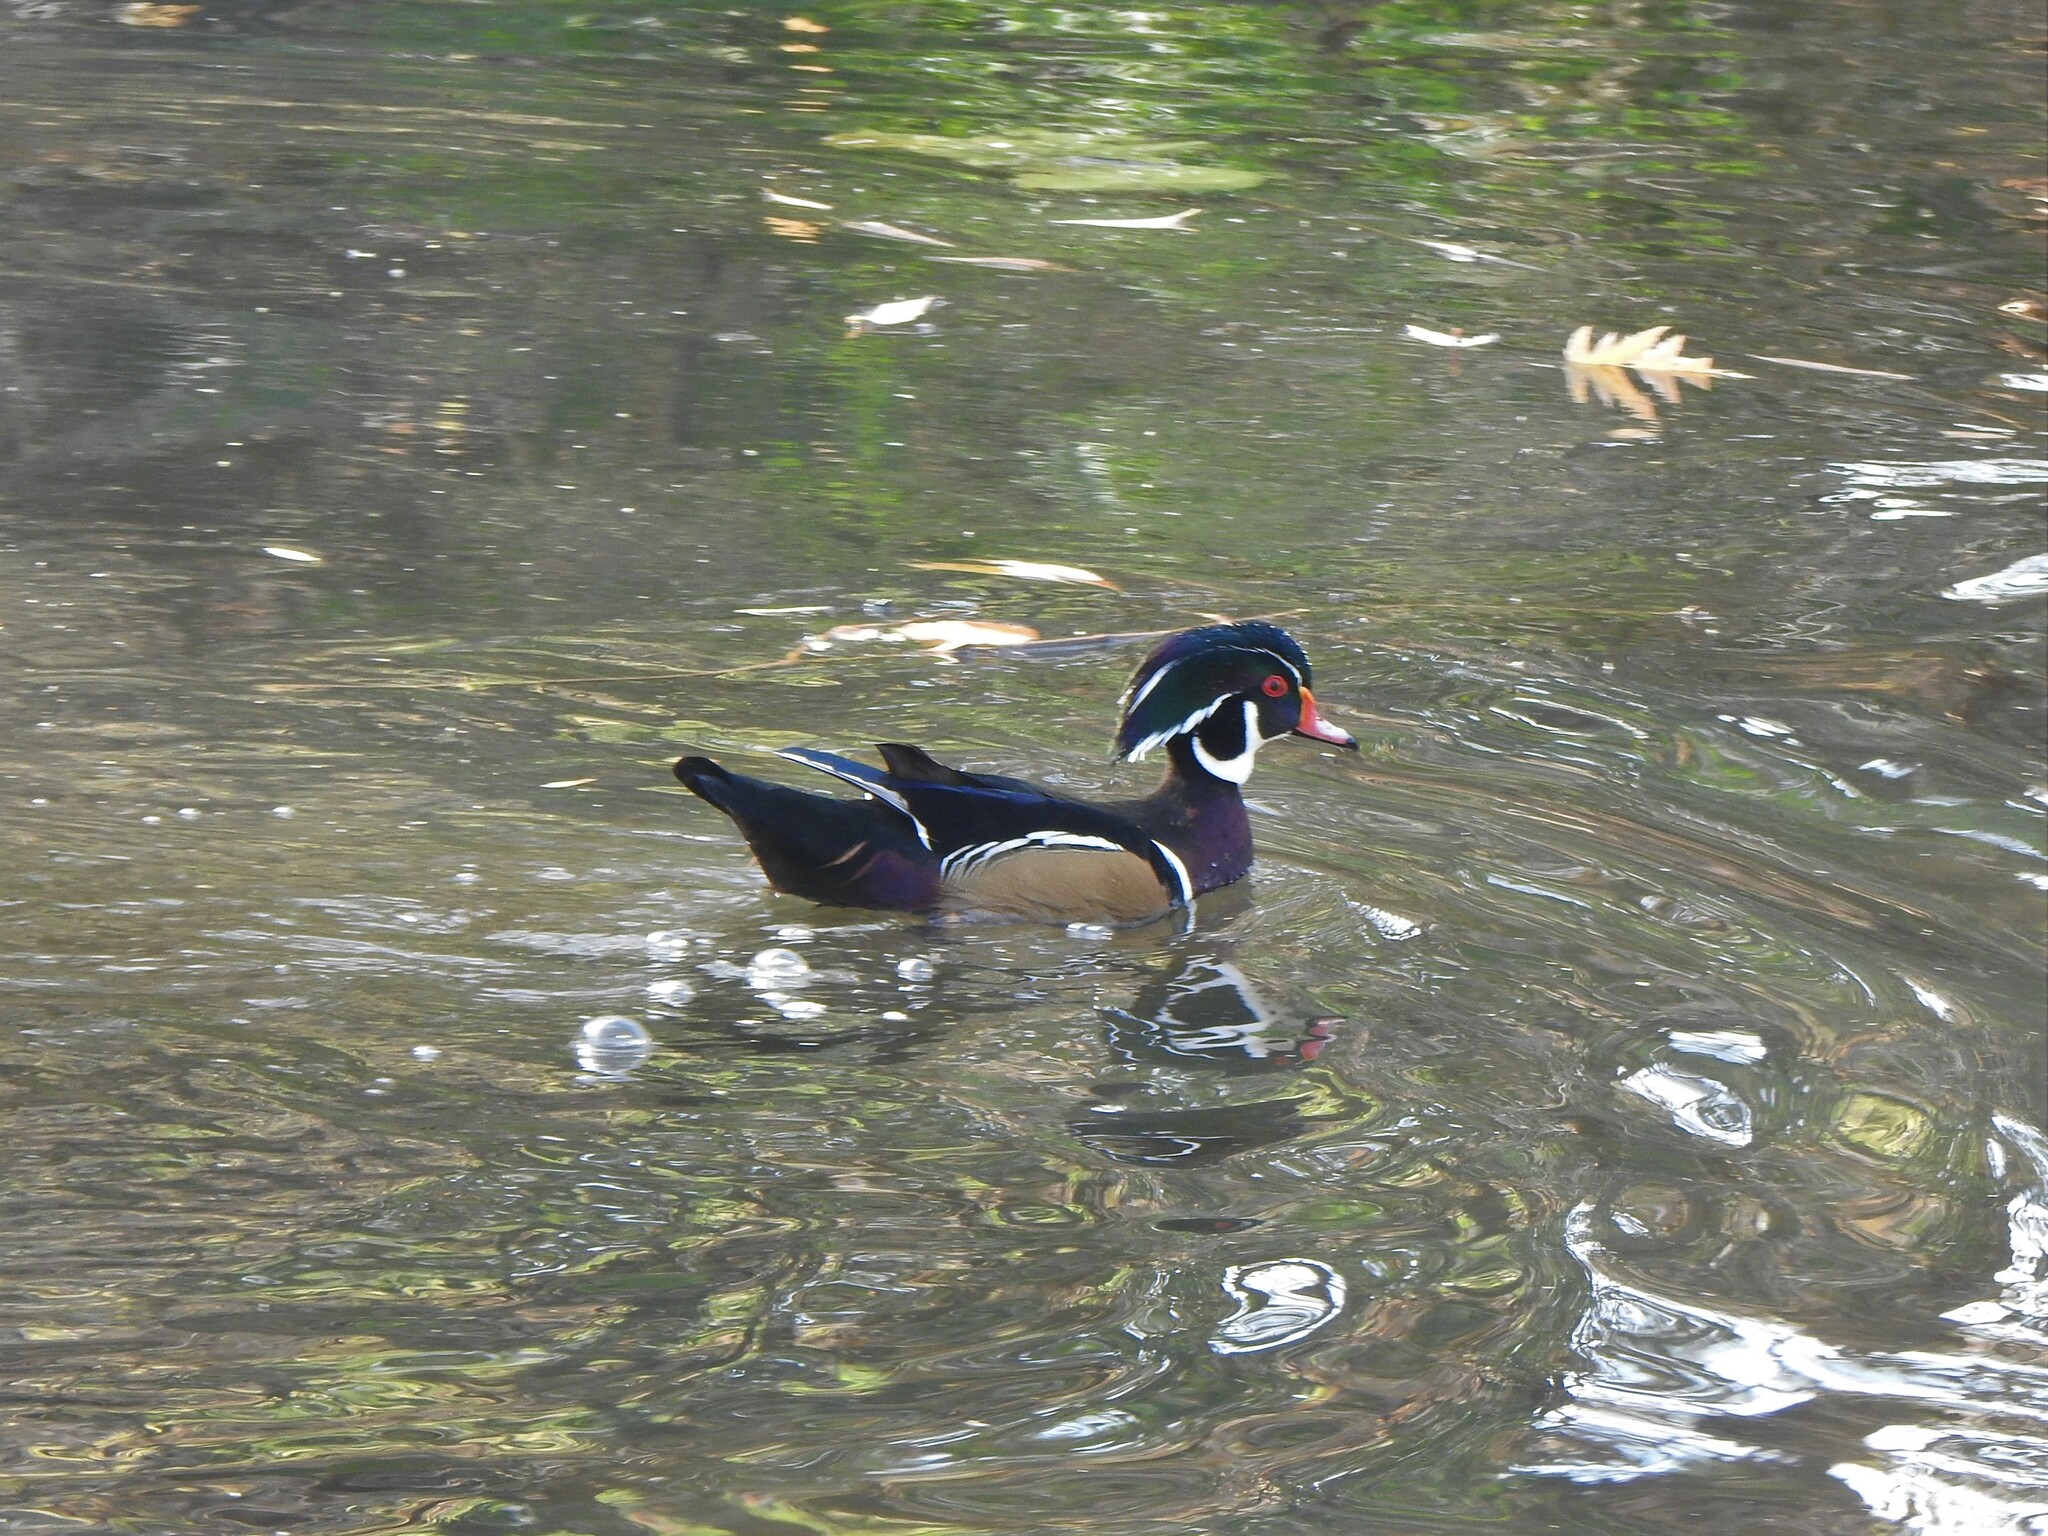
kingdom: Animalia
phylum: Chordata
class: Aves
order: Anseriformes
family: Anatidae
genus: Aix
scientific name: Aix sponsa
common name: Wood duck
